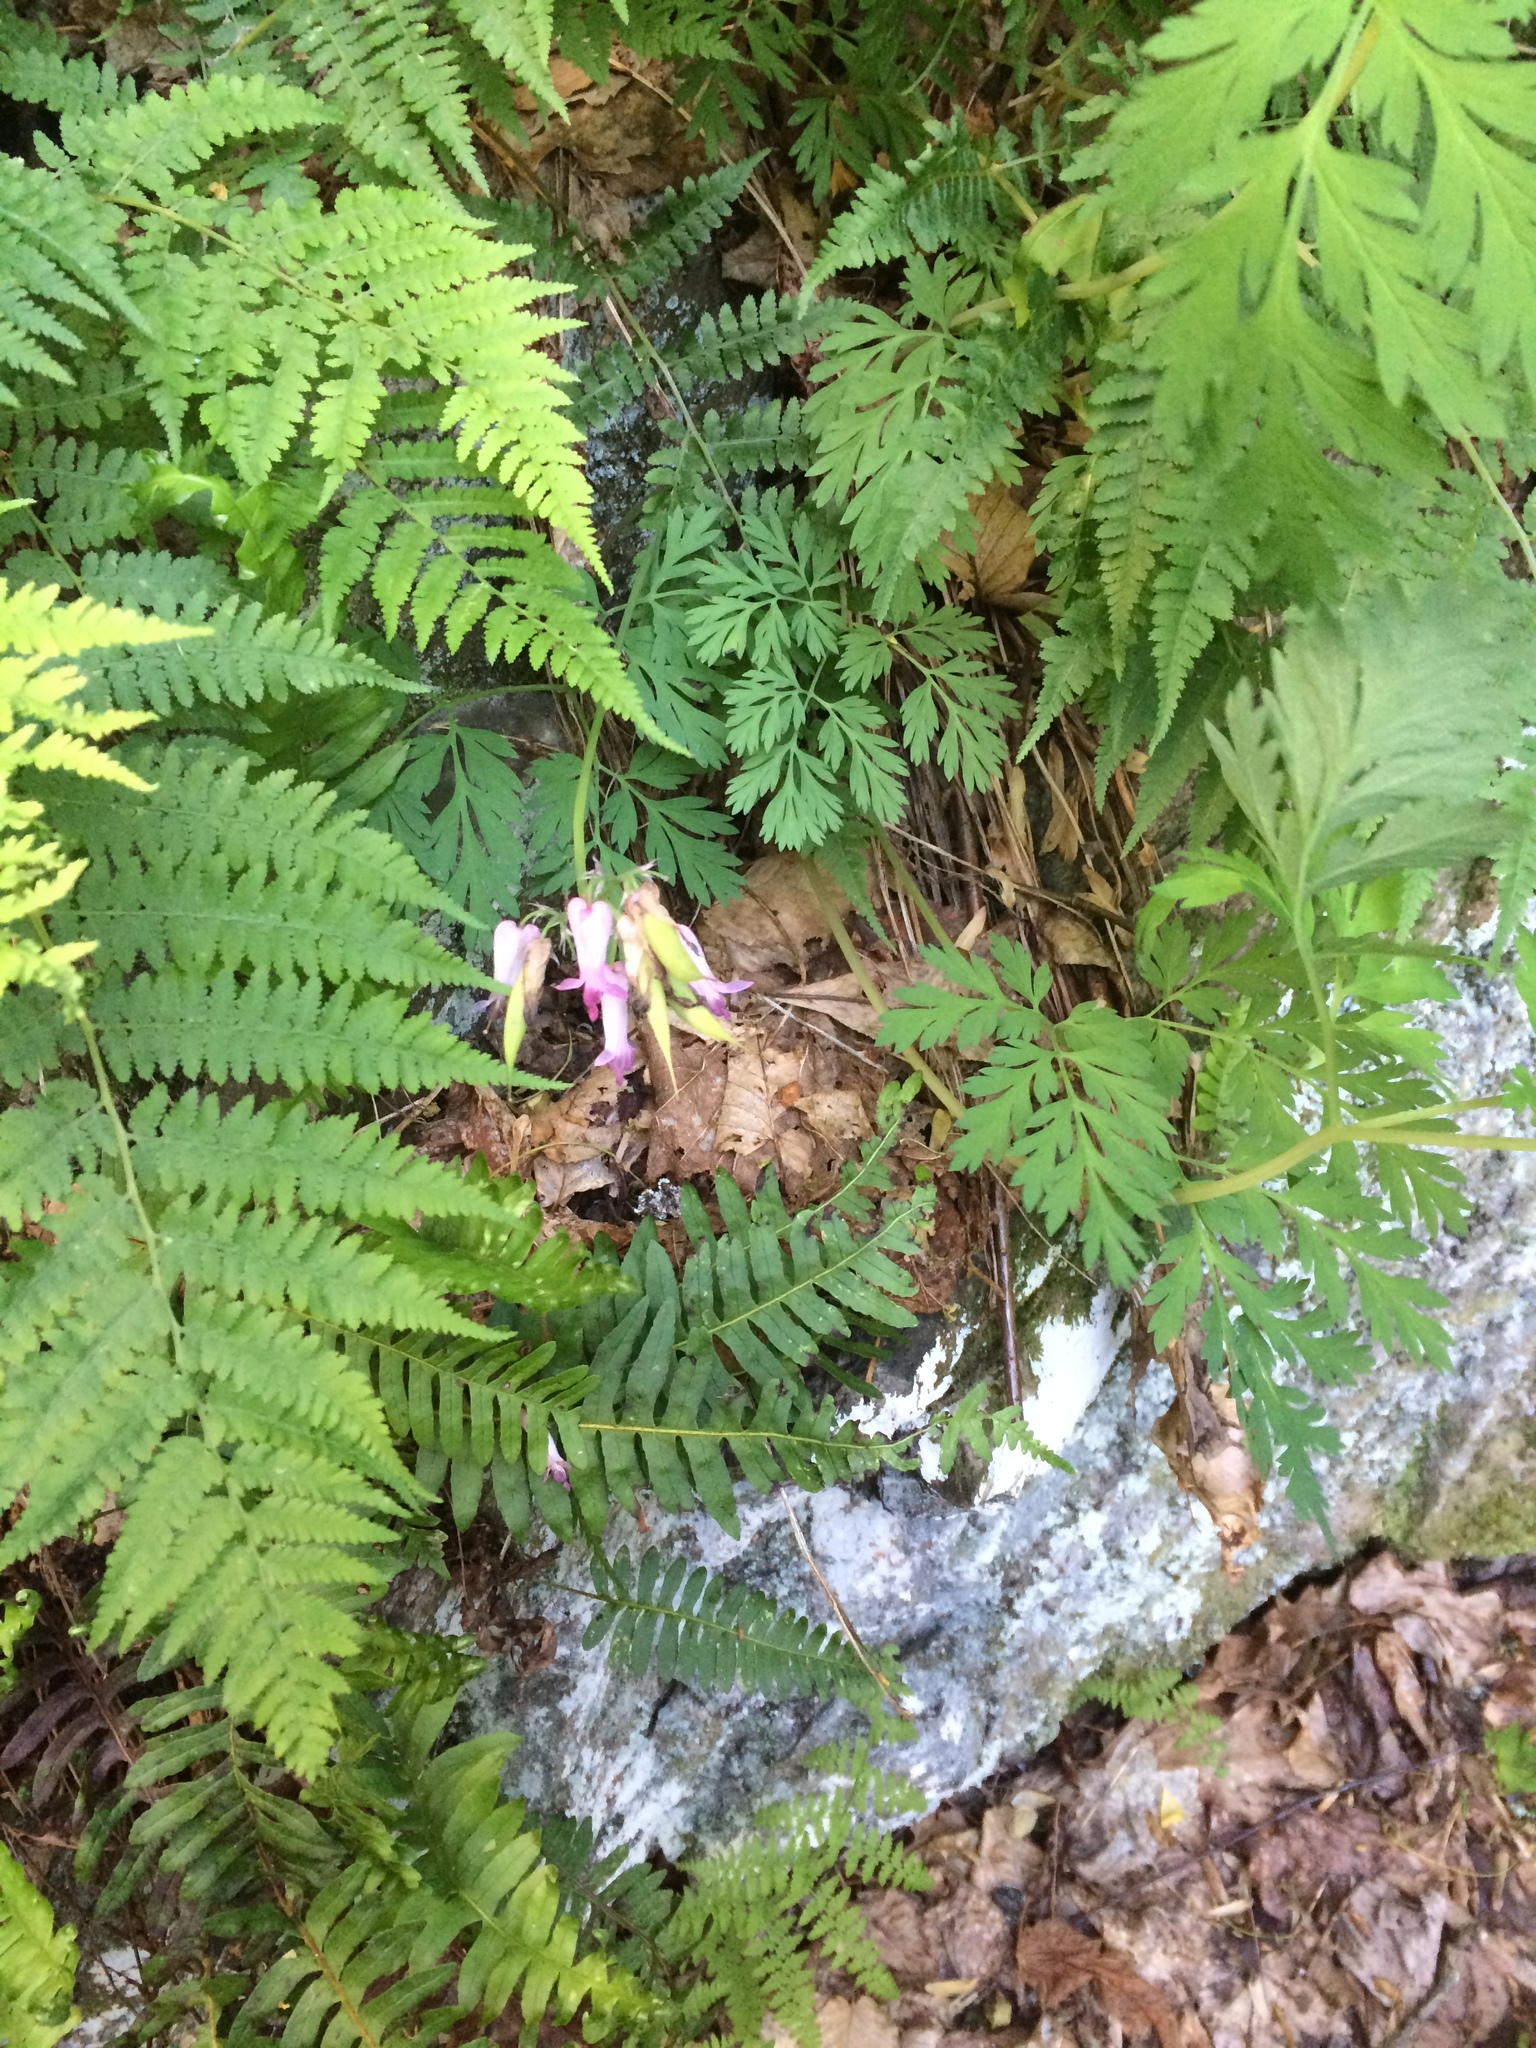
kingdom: Plantae
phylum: Tracheophyta
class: Magnoliopsida
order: Ranunculales
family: Papaveraceae
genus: Dicentra
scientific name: Dicentra eximia
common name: Turkey-corn
